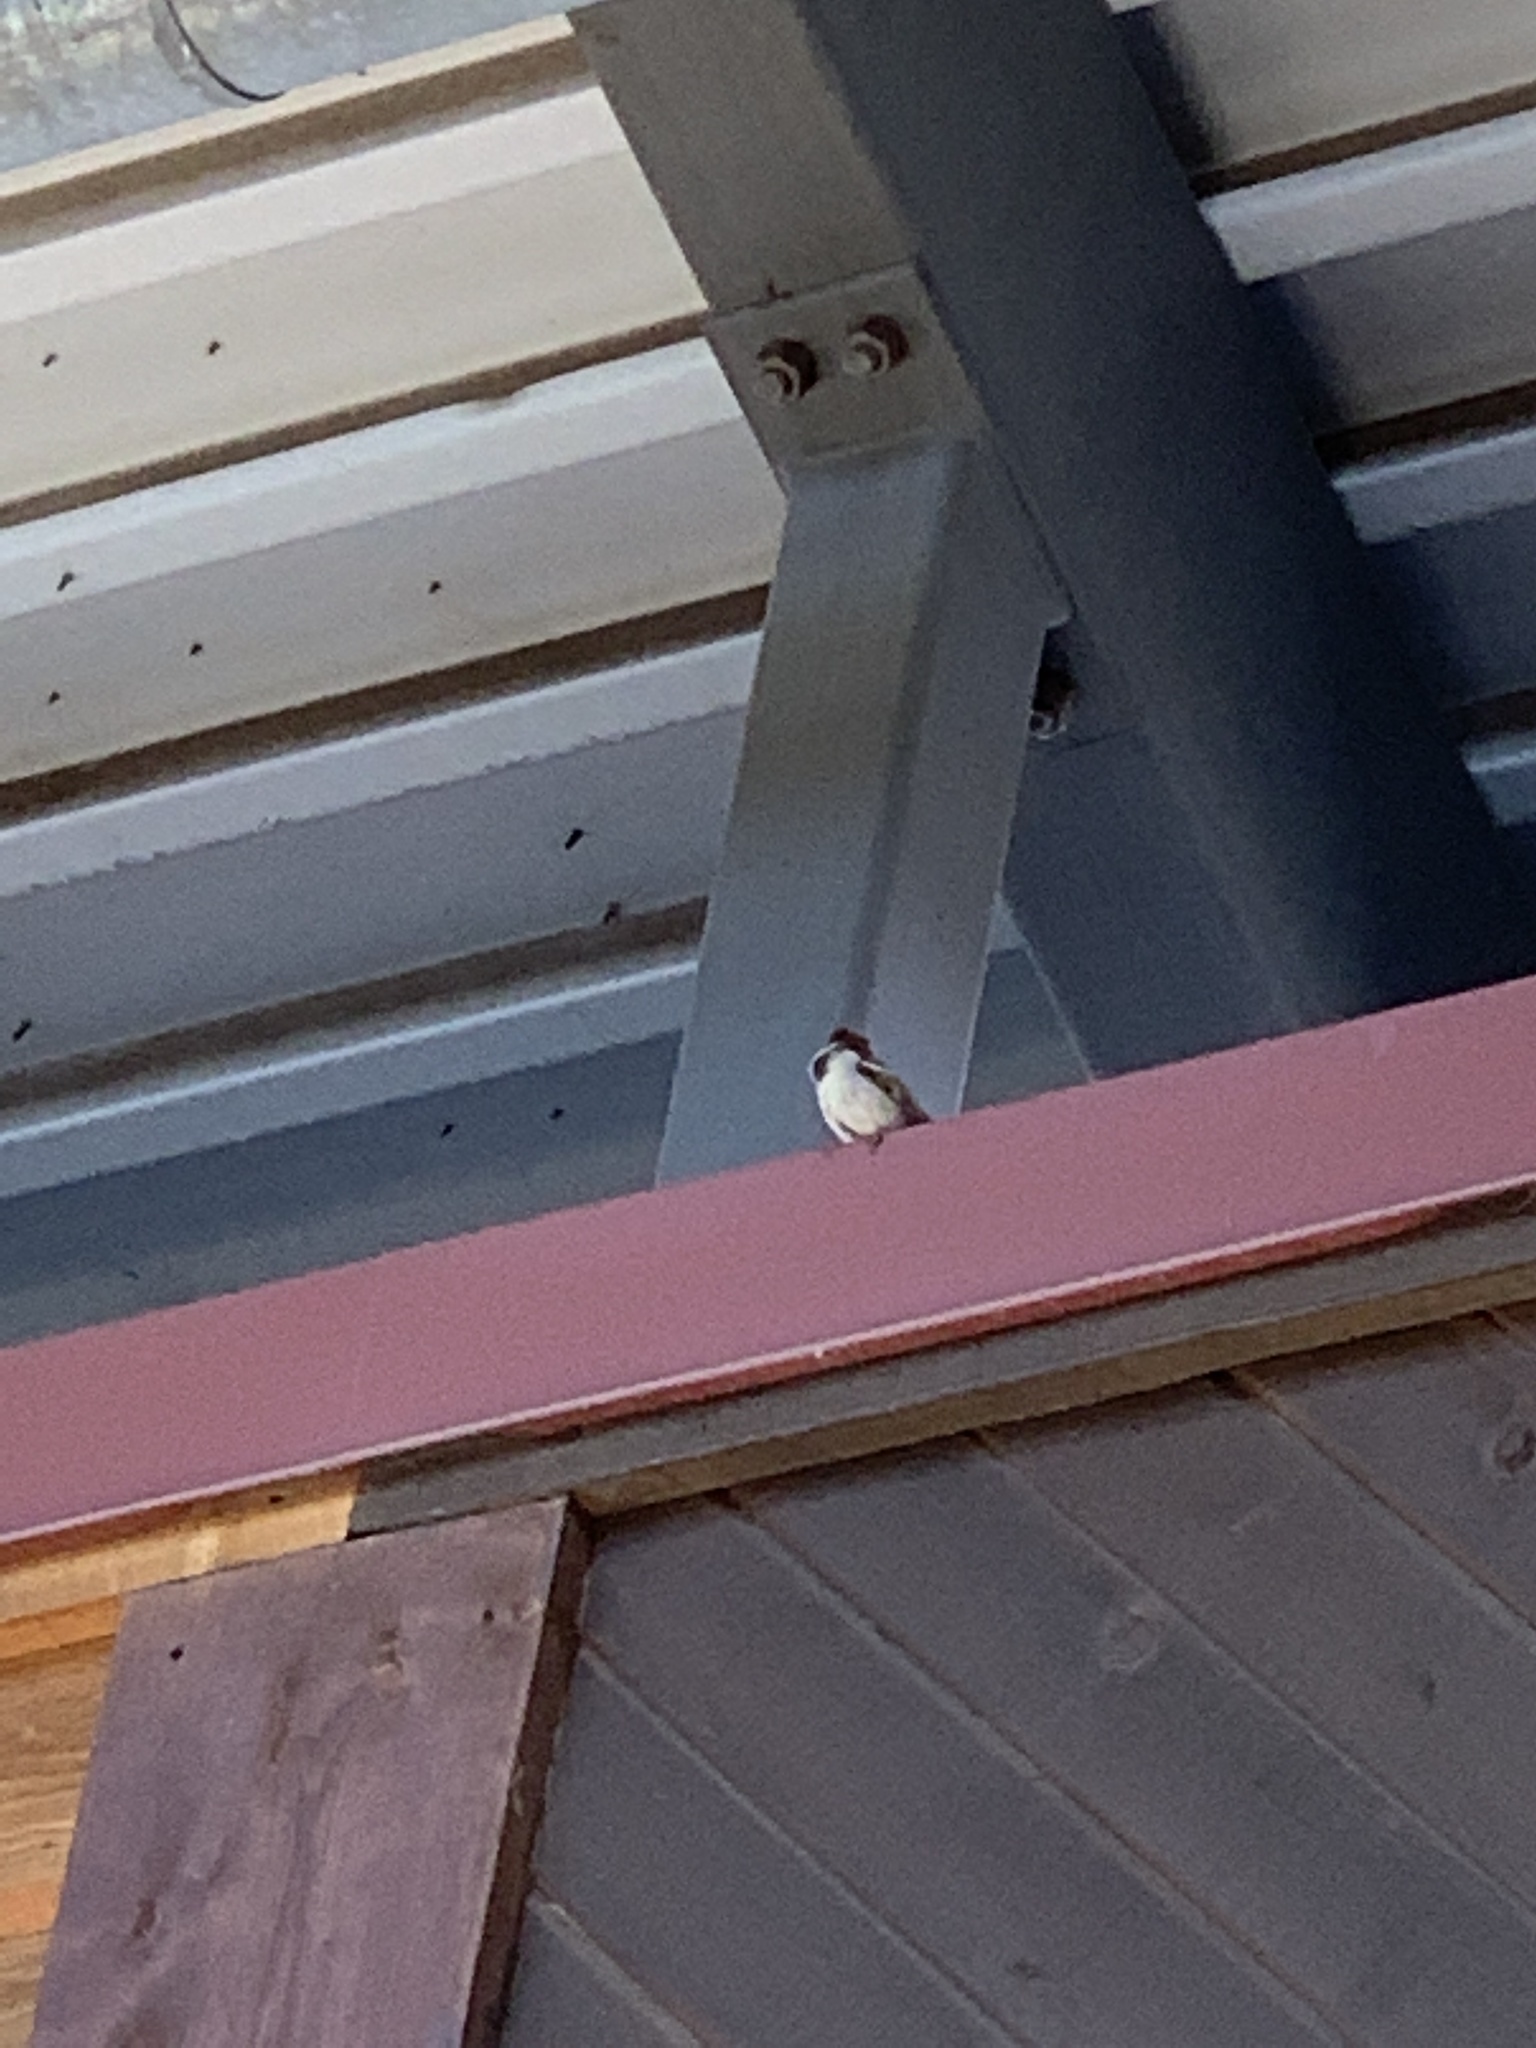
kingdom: Animalia
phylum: Chordata
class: Aves
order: Passeriformes
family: Passeridae
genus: Passer
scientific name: Passer domesticus
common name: House sparrow
